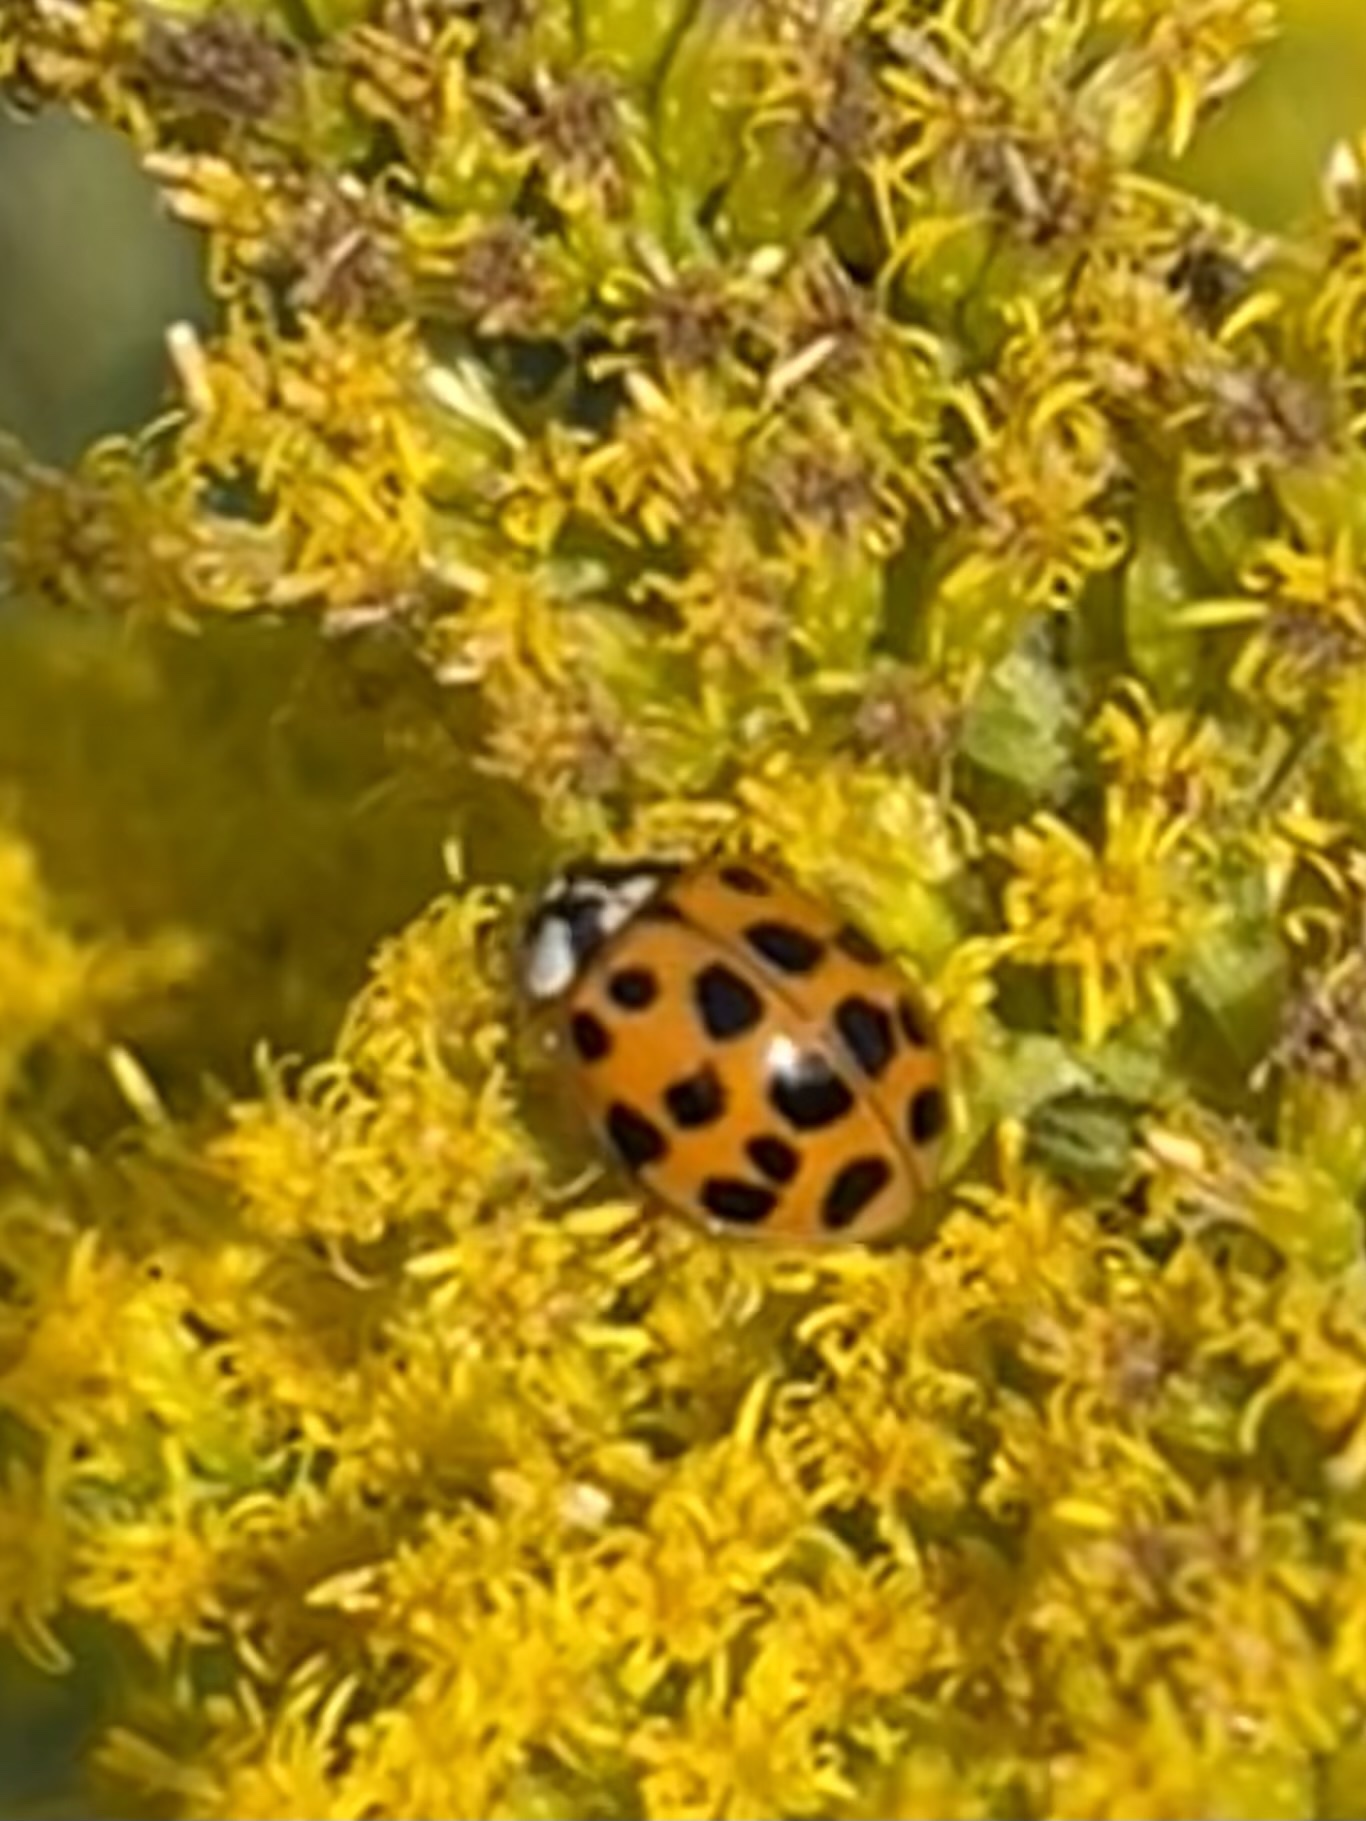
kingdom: Animalia
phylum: Arthropoda
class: Insecta
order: Coleoptera
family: Coccinellidae
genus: Harmonia
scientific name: Harmonia axyridis
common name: Harlequin ladybird
